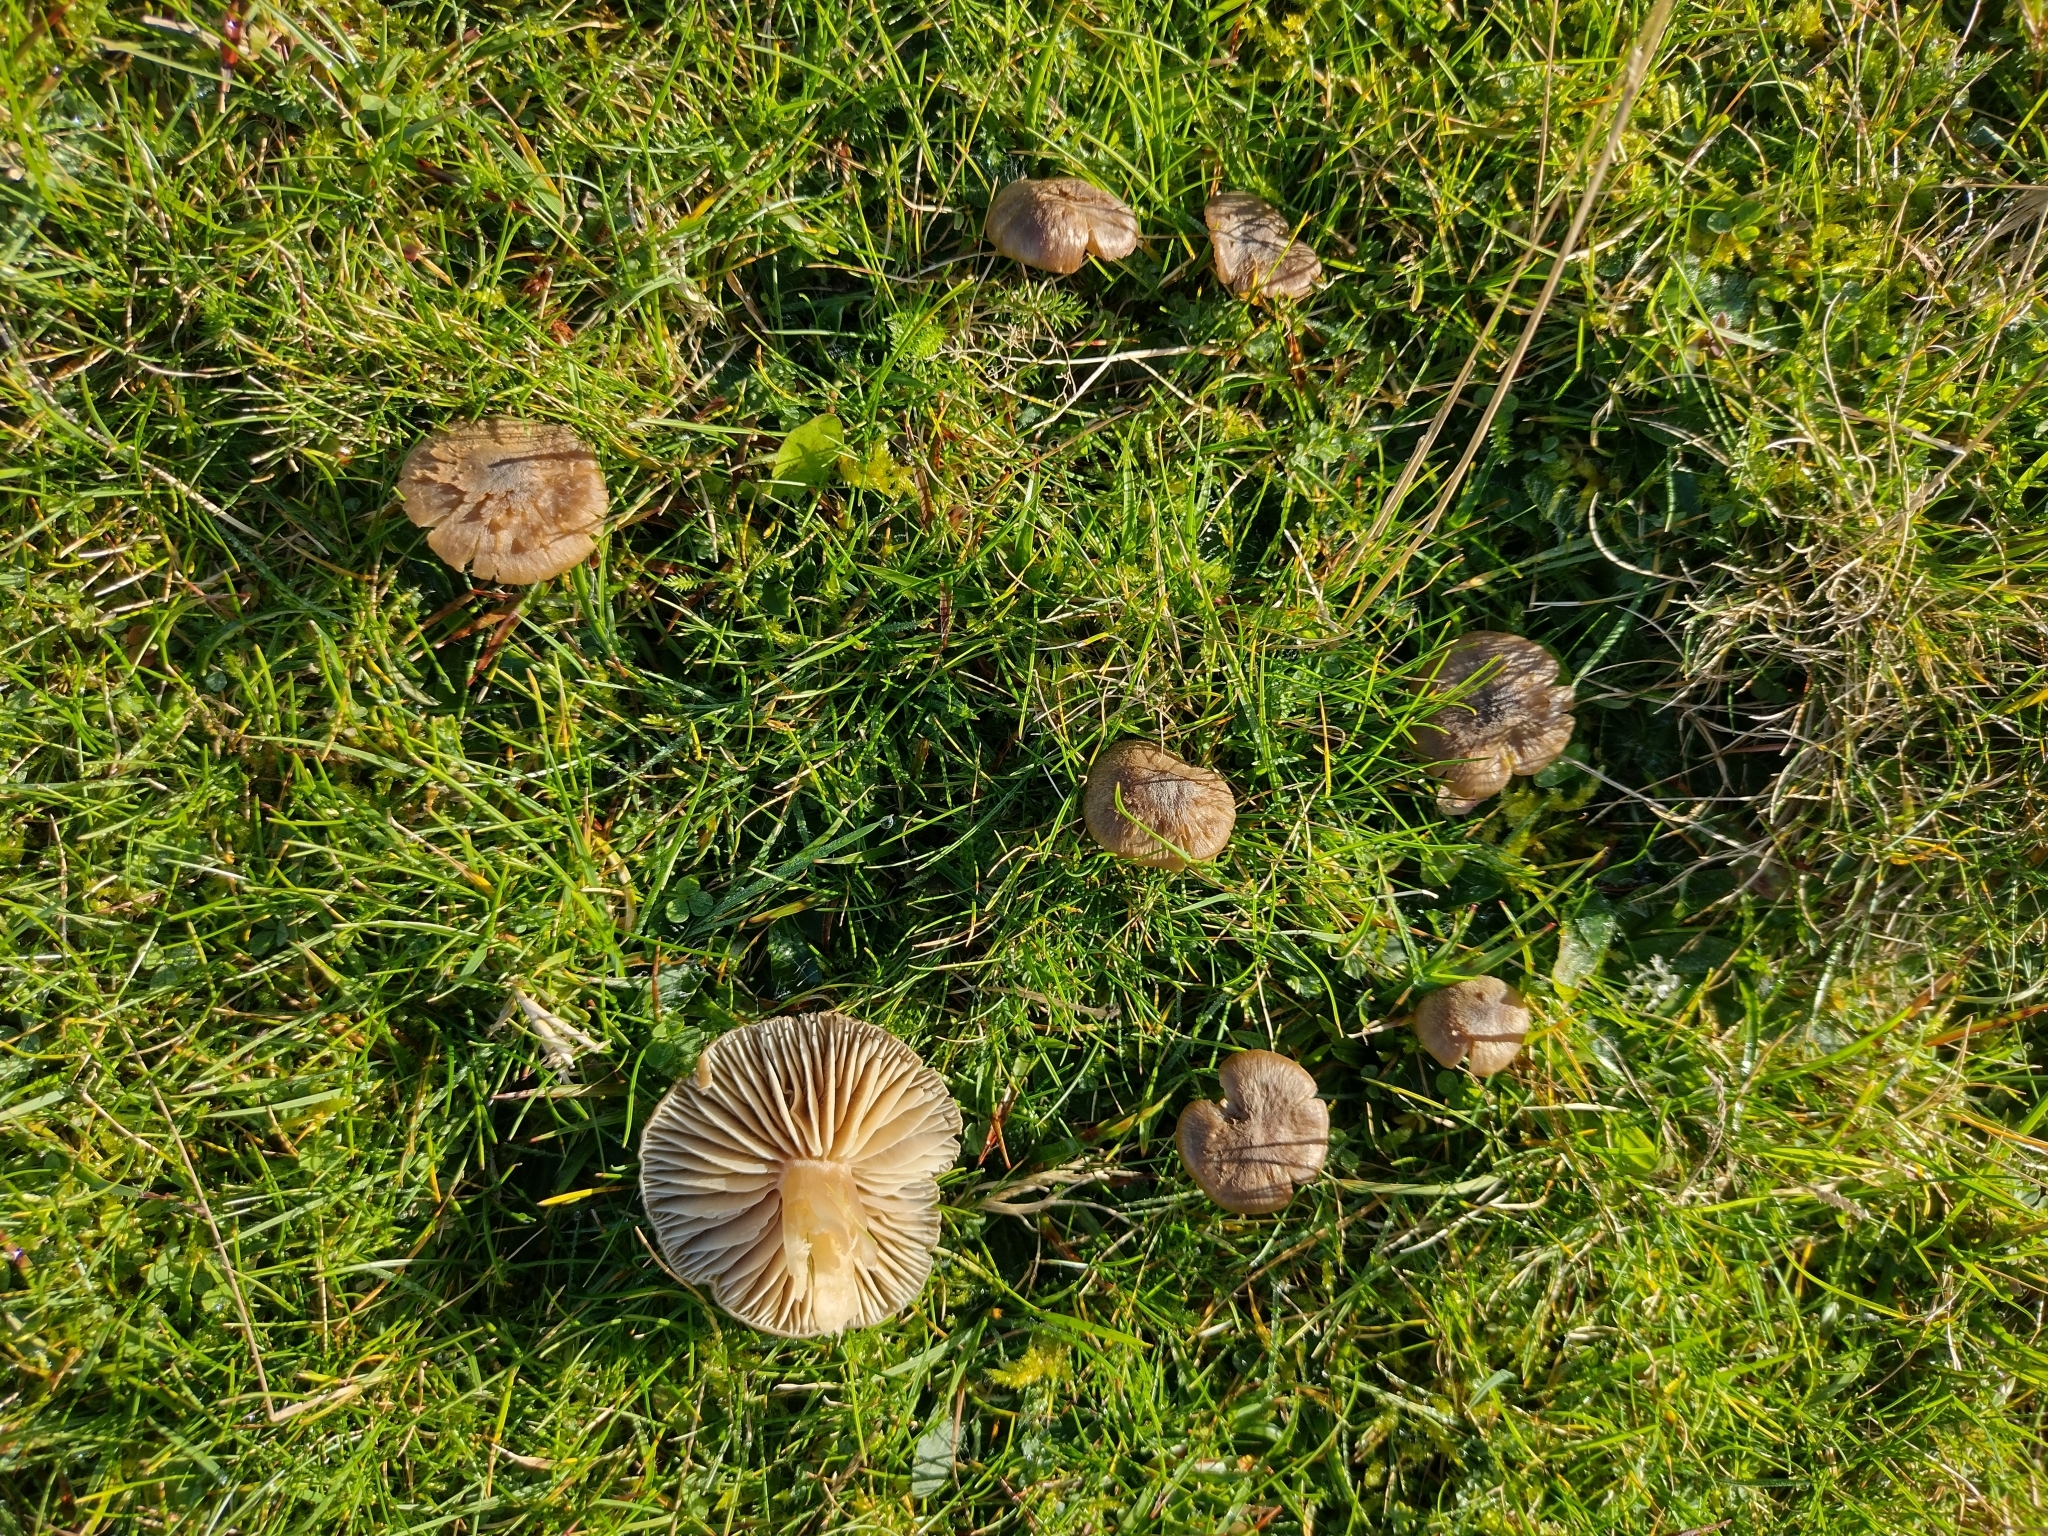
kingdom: Fungi
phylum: Basidiomycota
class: Agaricomycetes
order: Agaricales
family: Hygrophoraceae
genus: Neohygrocybe
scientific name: Neohygrocybe nitrata
